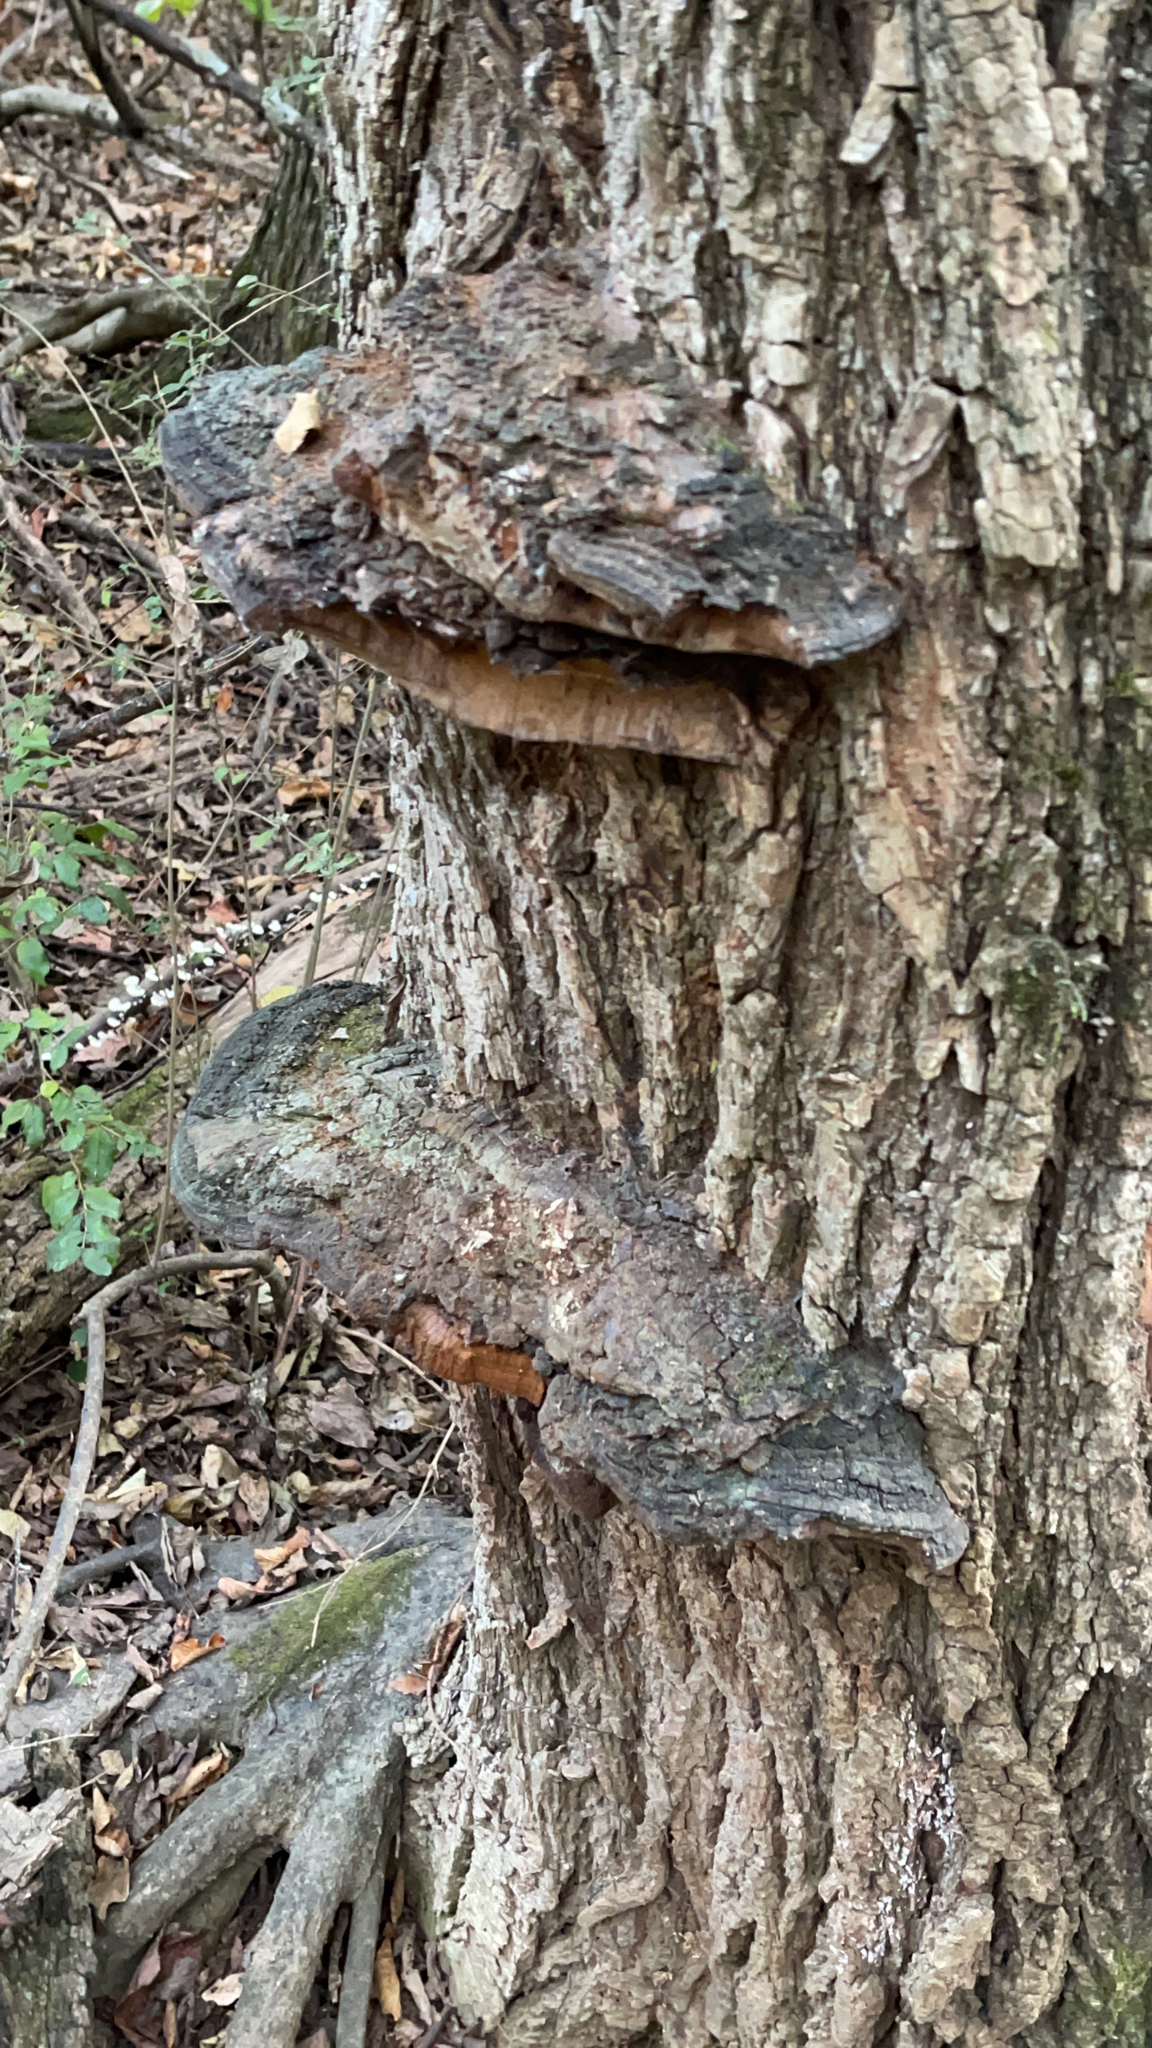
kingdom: Fungi
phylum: Basidiomycota
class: Agaricomycetes
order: Hymenochaetales
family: Hymenochaetaceae
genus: Phellinus
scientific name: Phellinus robiniae
